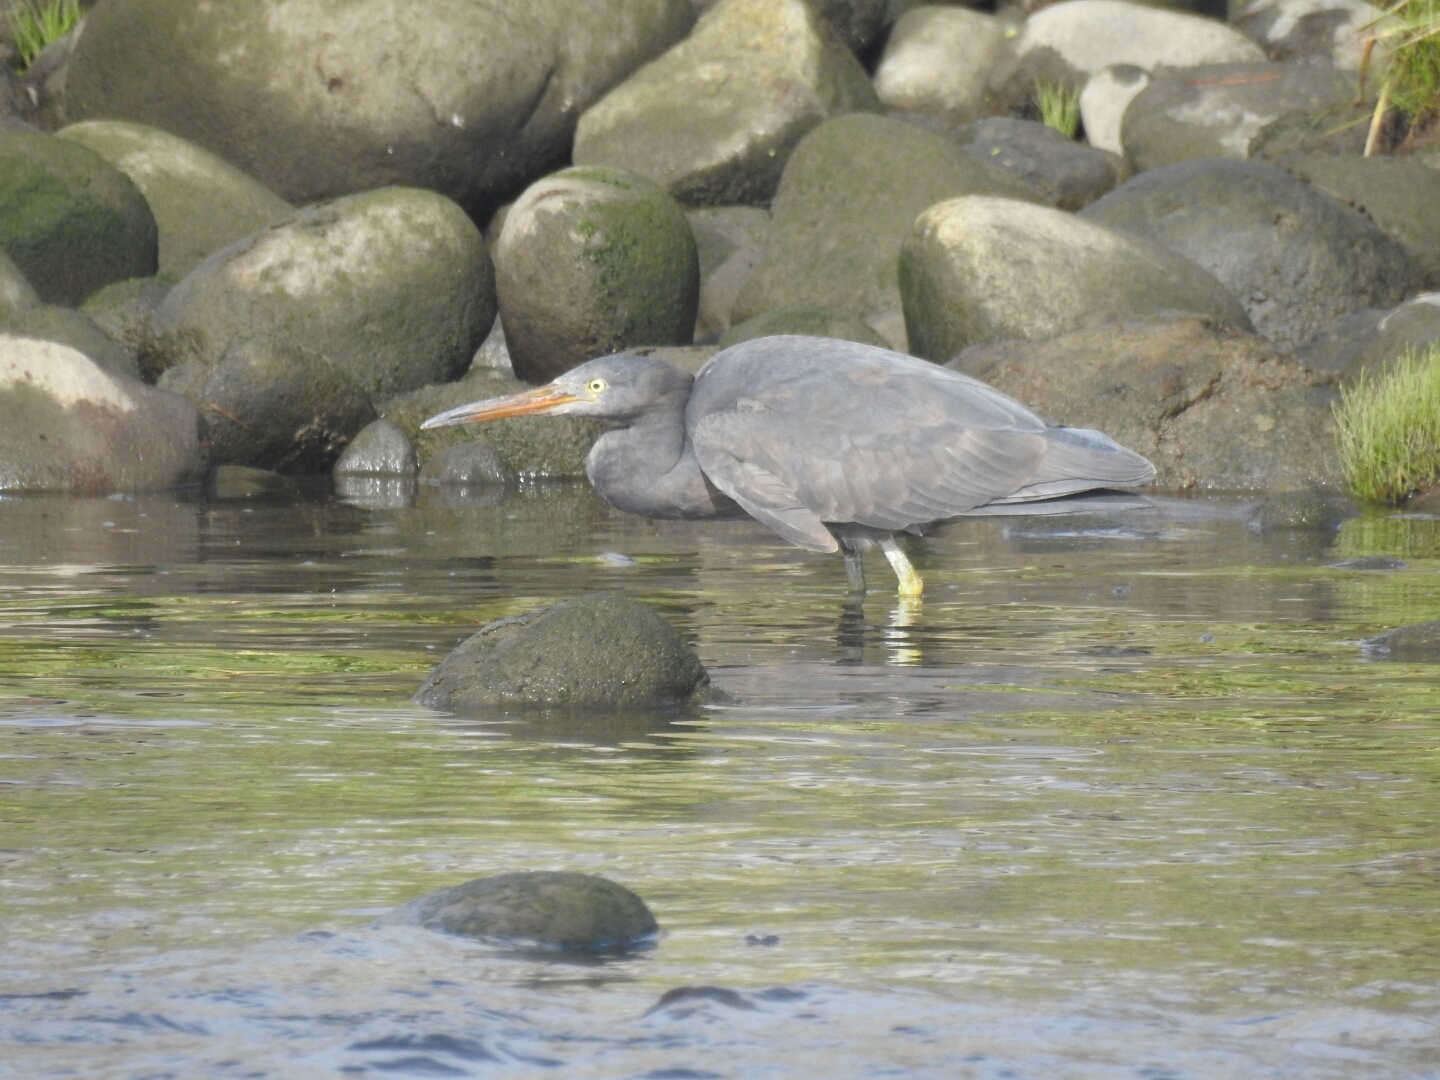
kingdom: Animalia
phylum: Chordata
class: Aves
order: Pelecaniformes
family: Ardeidae
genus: Egretta
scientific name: Egretta sacra
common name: Pacific reef heron
